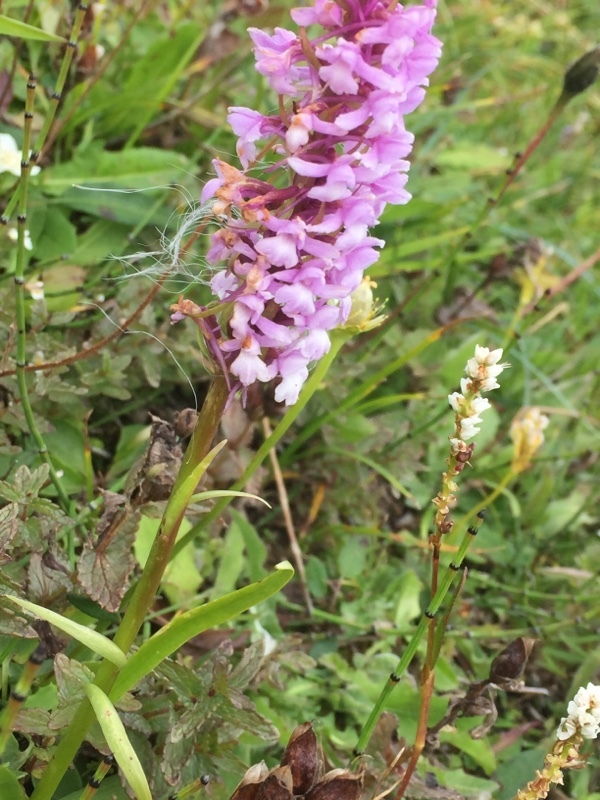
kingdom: Plantae
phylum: Tracheophyta
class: Liliopsida
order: Asparagales
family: Orchidaceae
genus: Gymnadenia
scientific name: Gymnadenia conopsea
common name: Fragrant orchid
